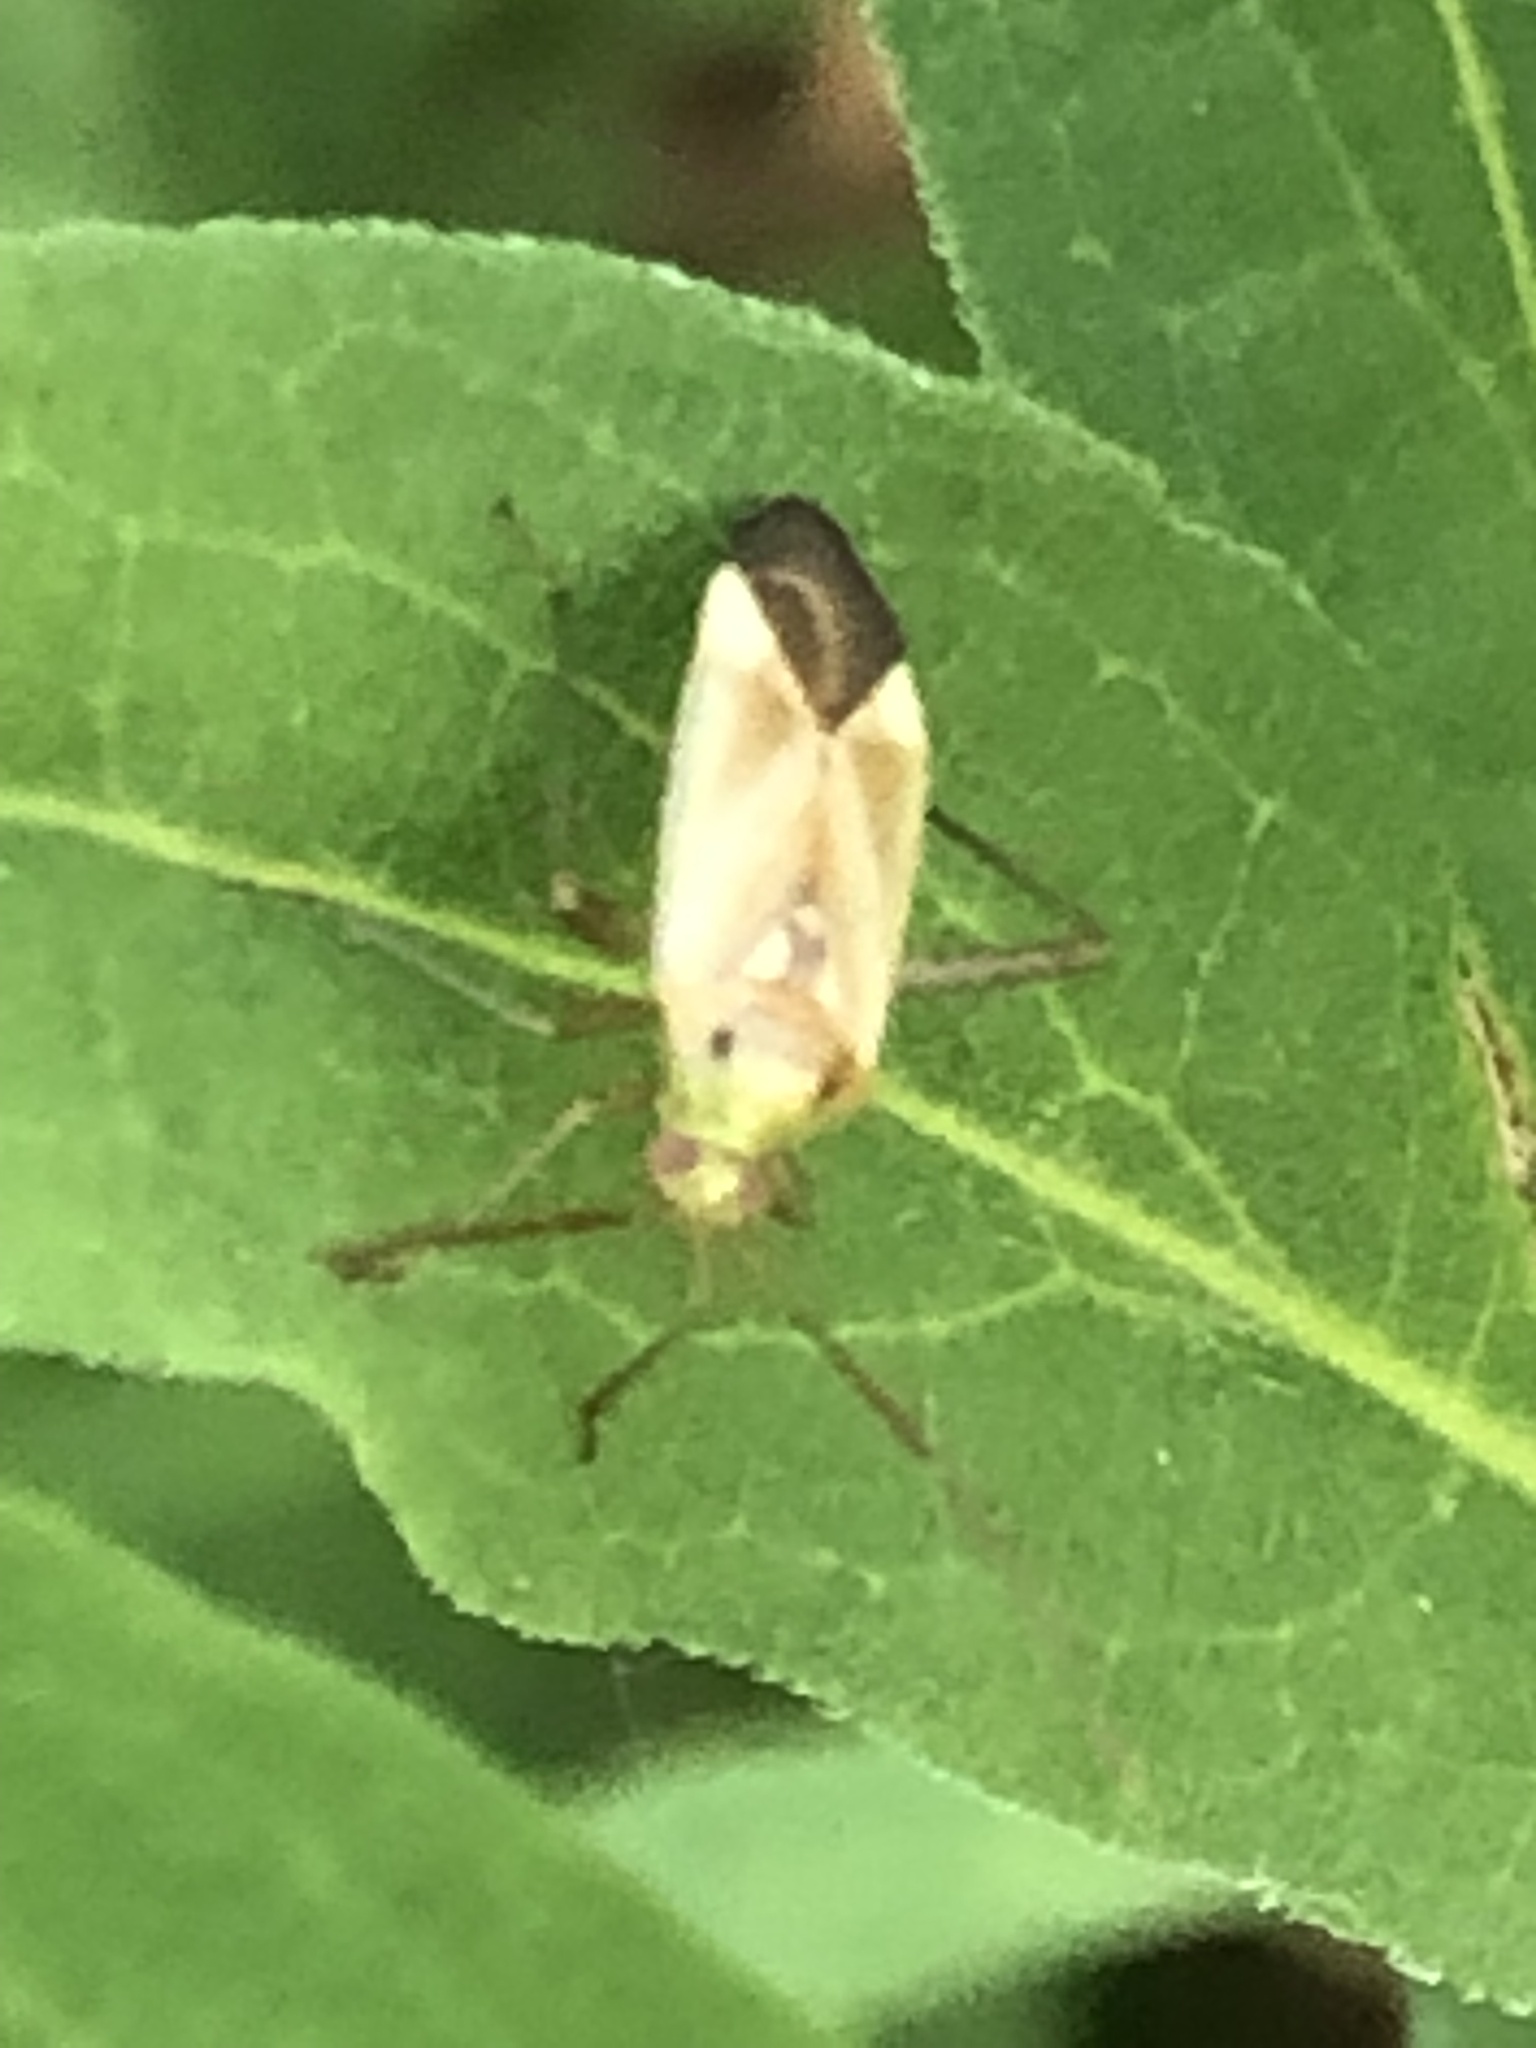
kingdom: Animalia
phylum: Arthropoda
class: Insecta
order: Hemiptera
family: Miridae
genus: Adelphocoris
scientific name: Adelphocoris lineolatus
